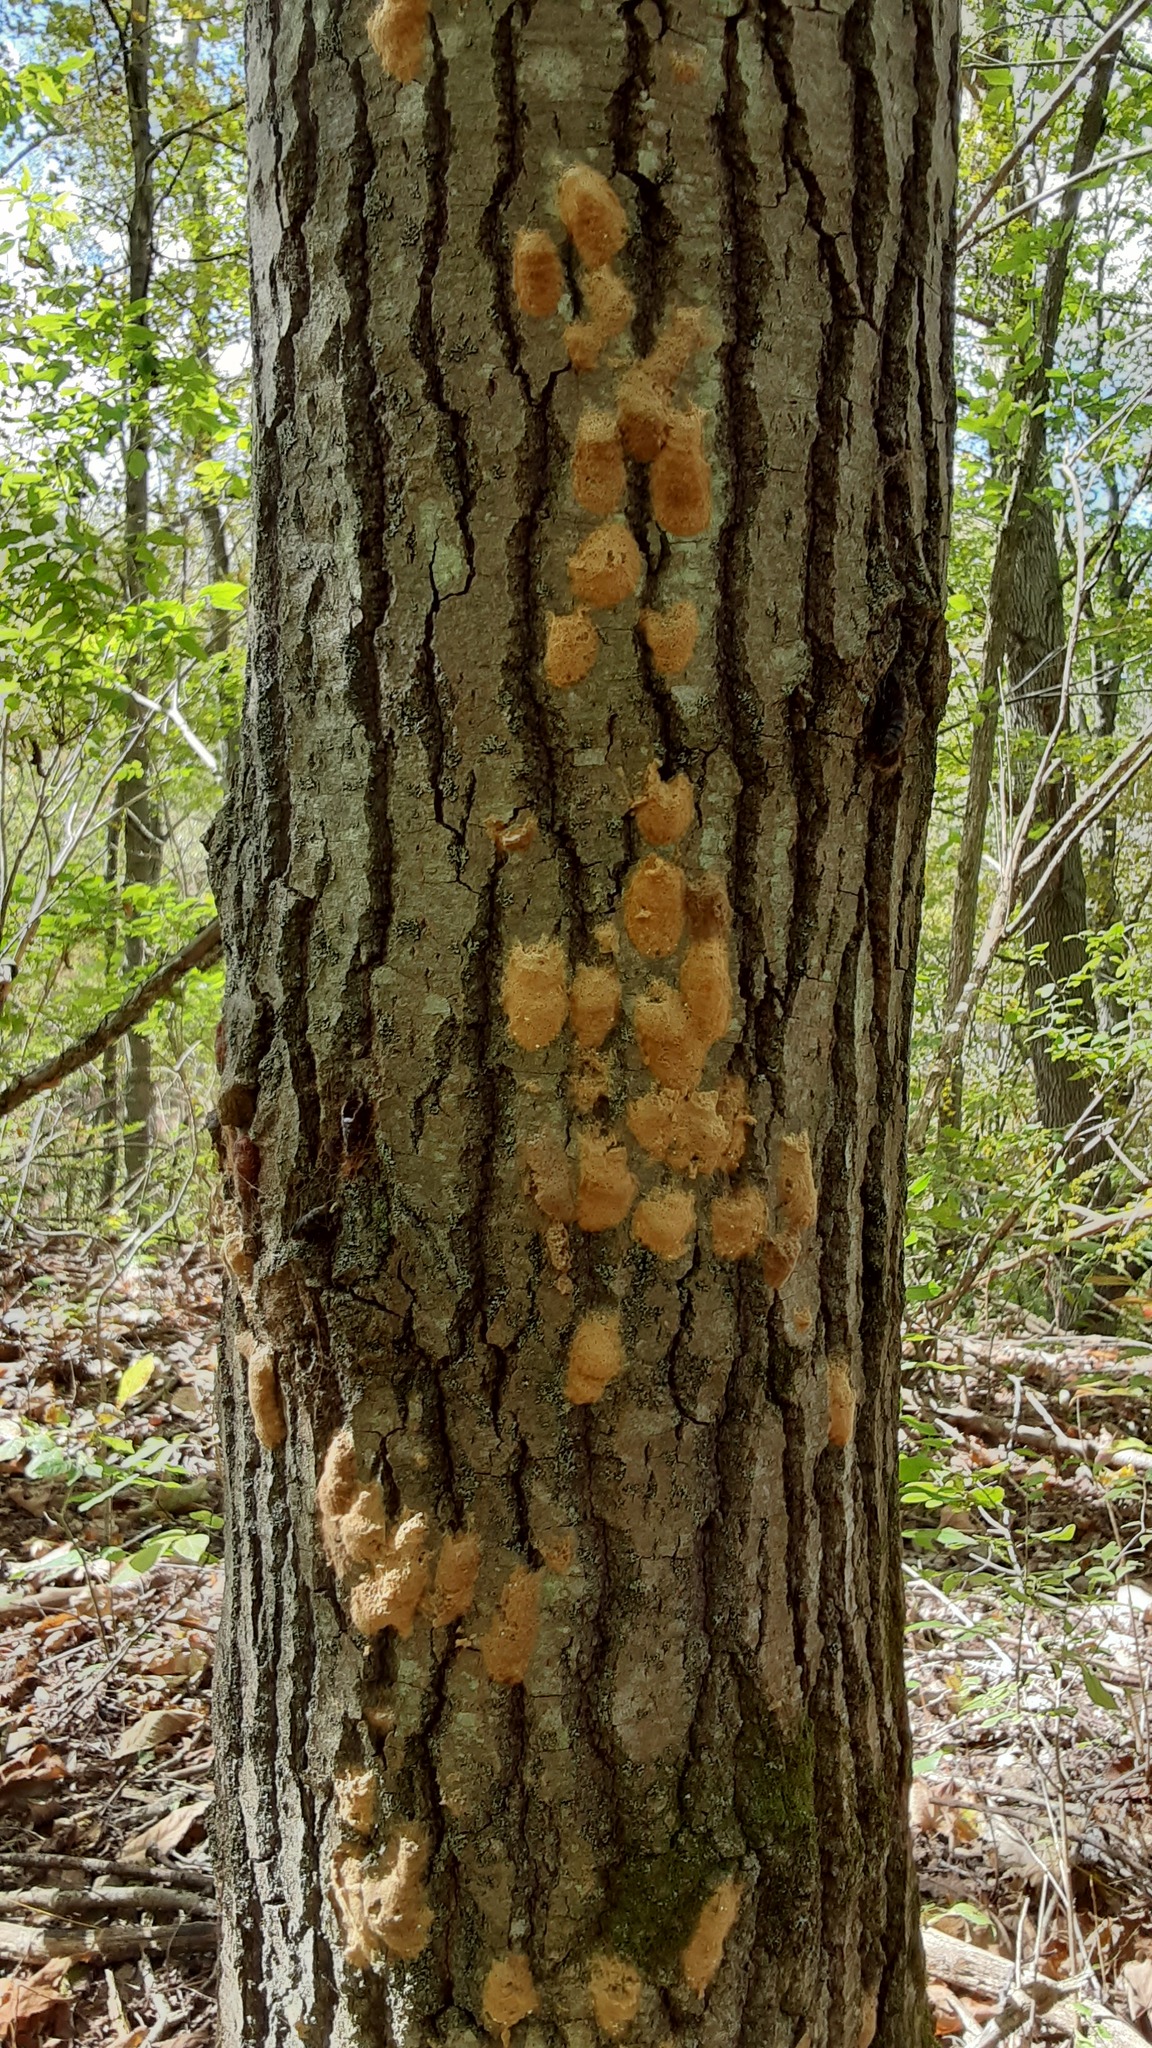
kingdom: Animalia
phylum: Arthropoda
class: Insecta
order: Lepidoptera
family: Erebidae
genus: Lymantria
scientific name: Lymantria dispar
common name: Gypsy moth
